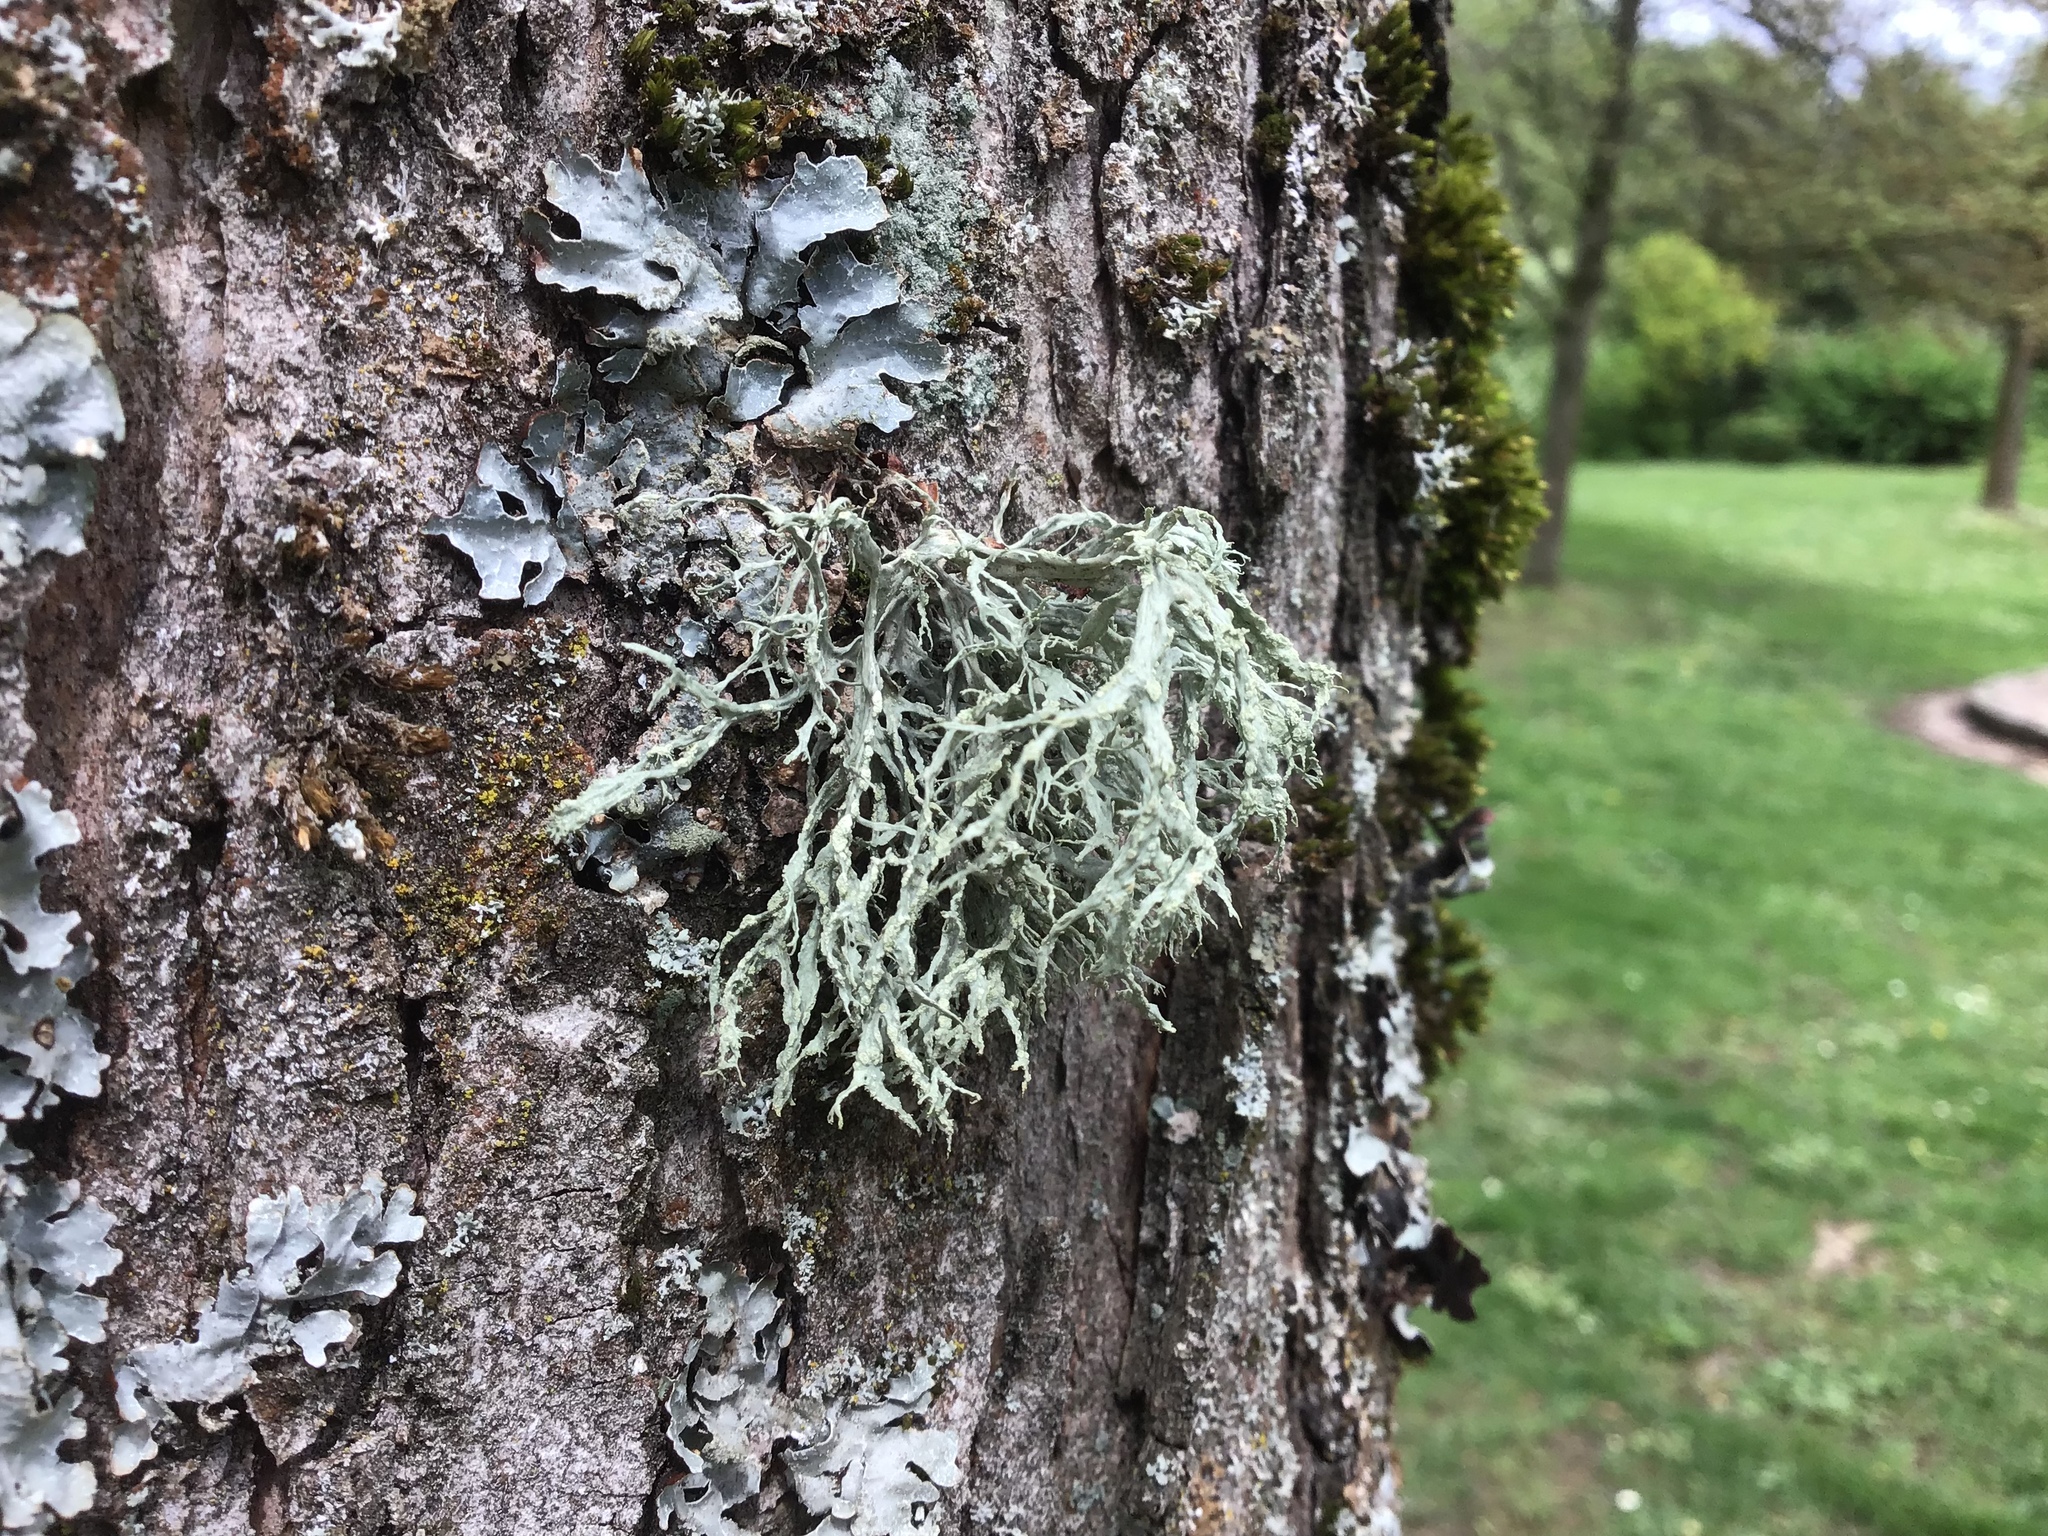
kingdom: Fungi
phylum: Ascomycota
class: Lecanoromycetes
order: Lecanorales
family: Parmeliaceae
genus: Evernia
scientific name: Evernia prunastri
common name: Oak moss
